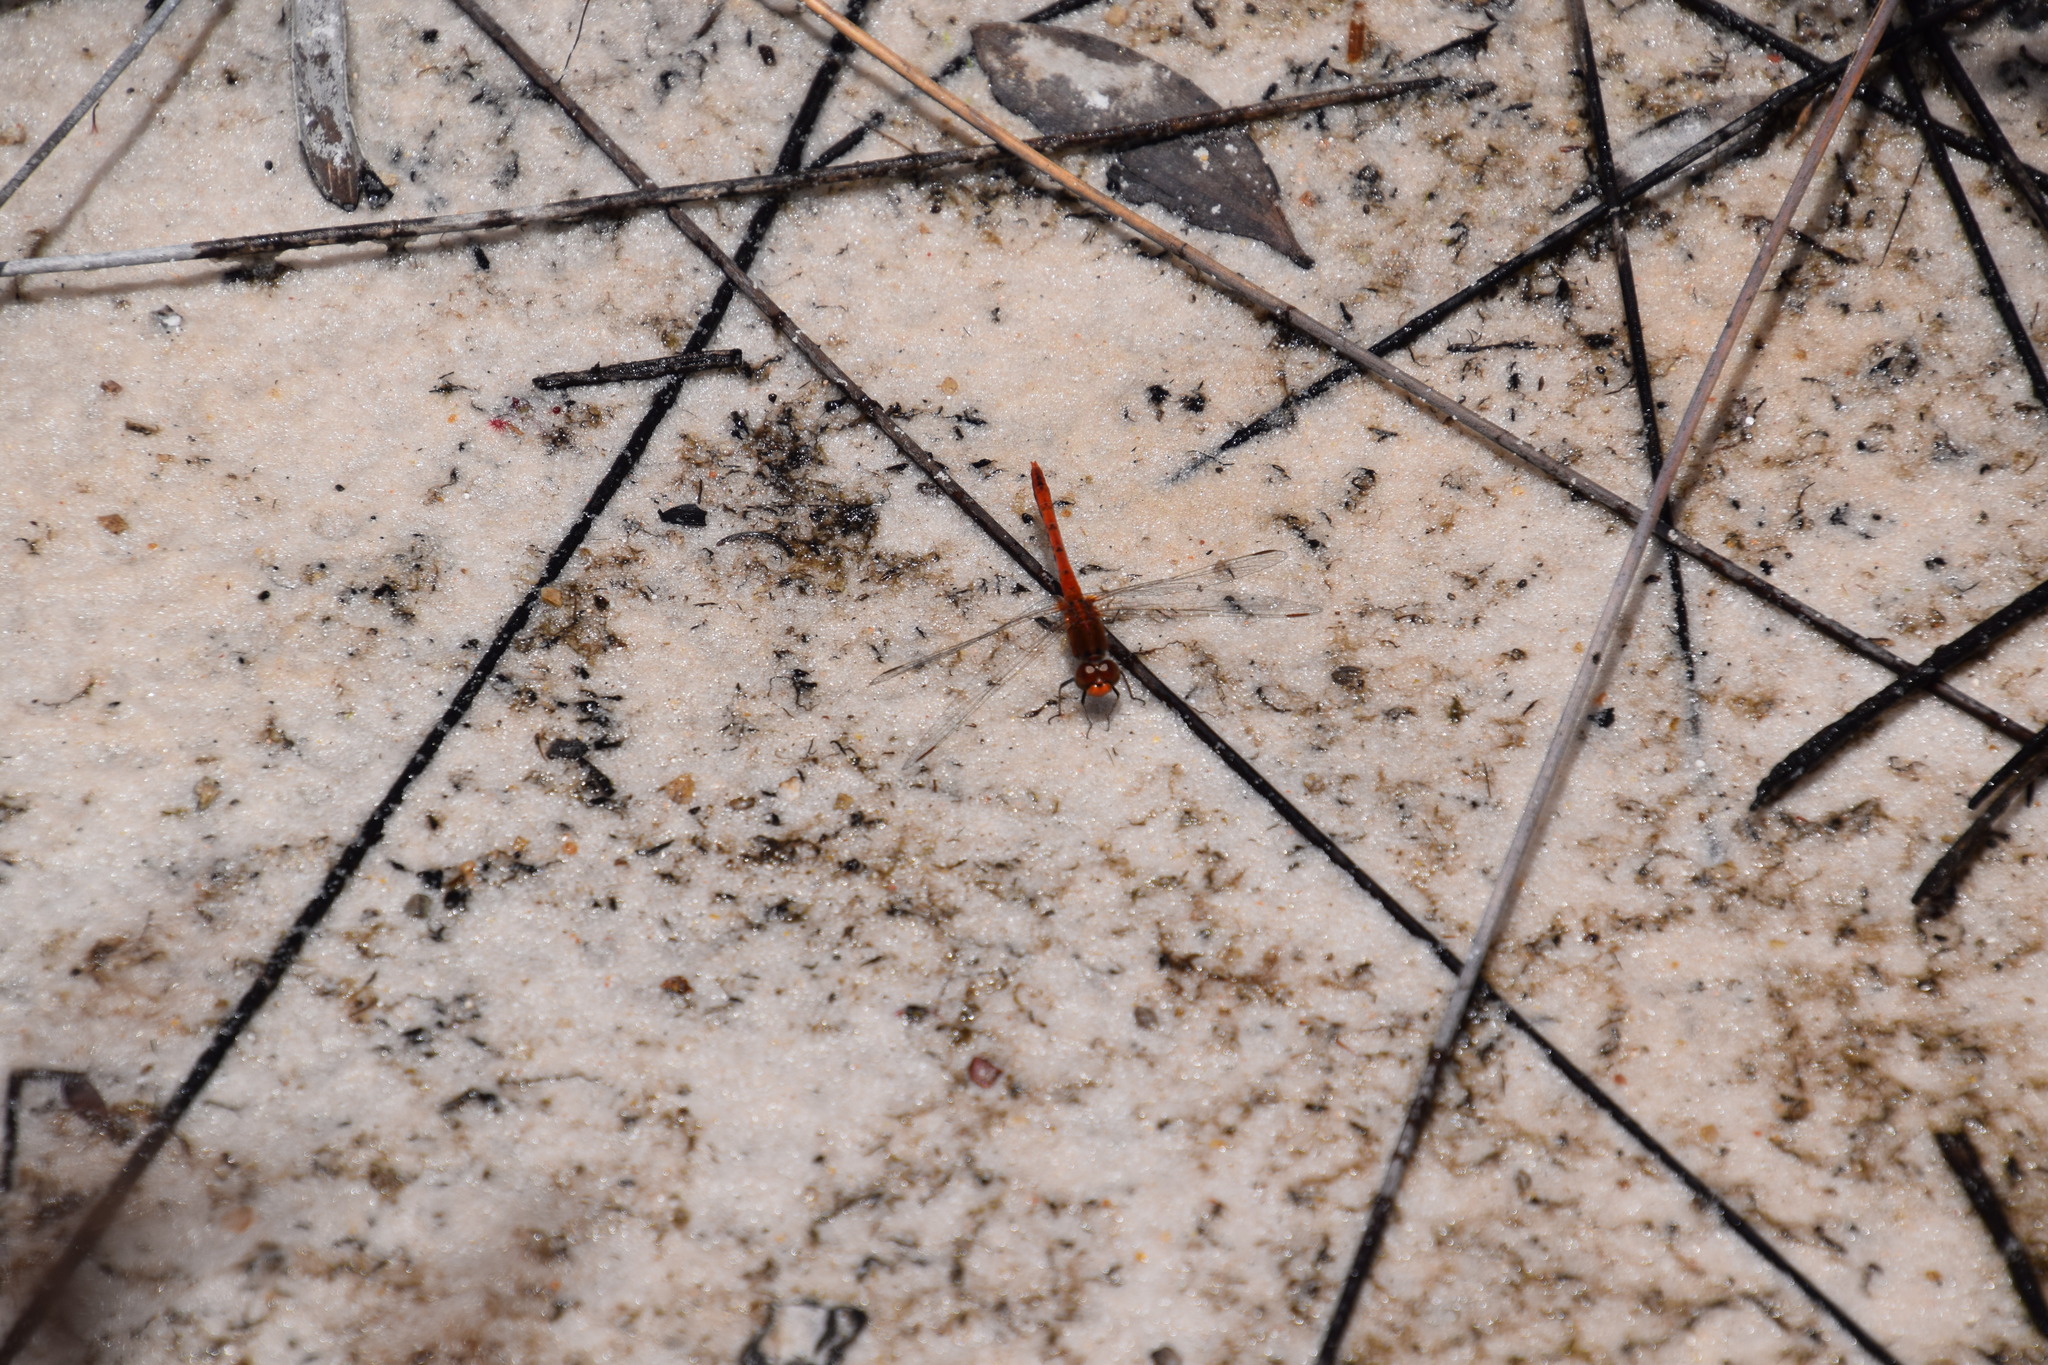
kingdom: Animalia
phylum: Arthropoda
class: Insecta
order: Odonata
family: Libellulidae
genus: Diplacodes
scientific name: Diplacodes bipunctata
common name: Red percher dragonfly
